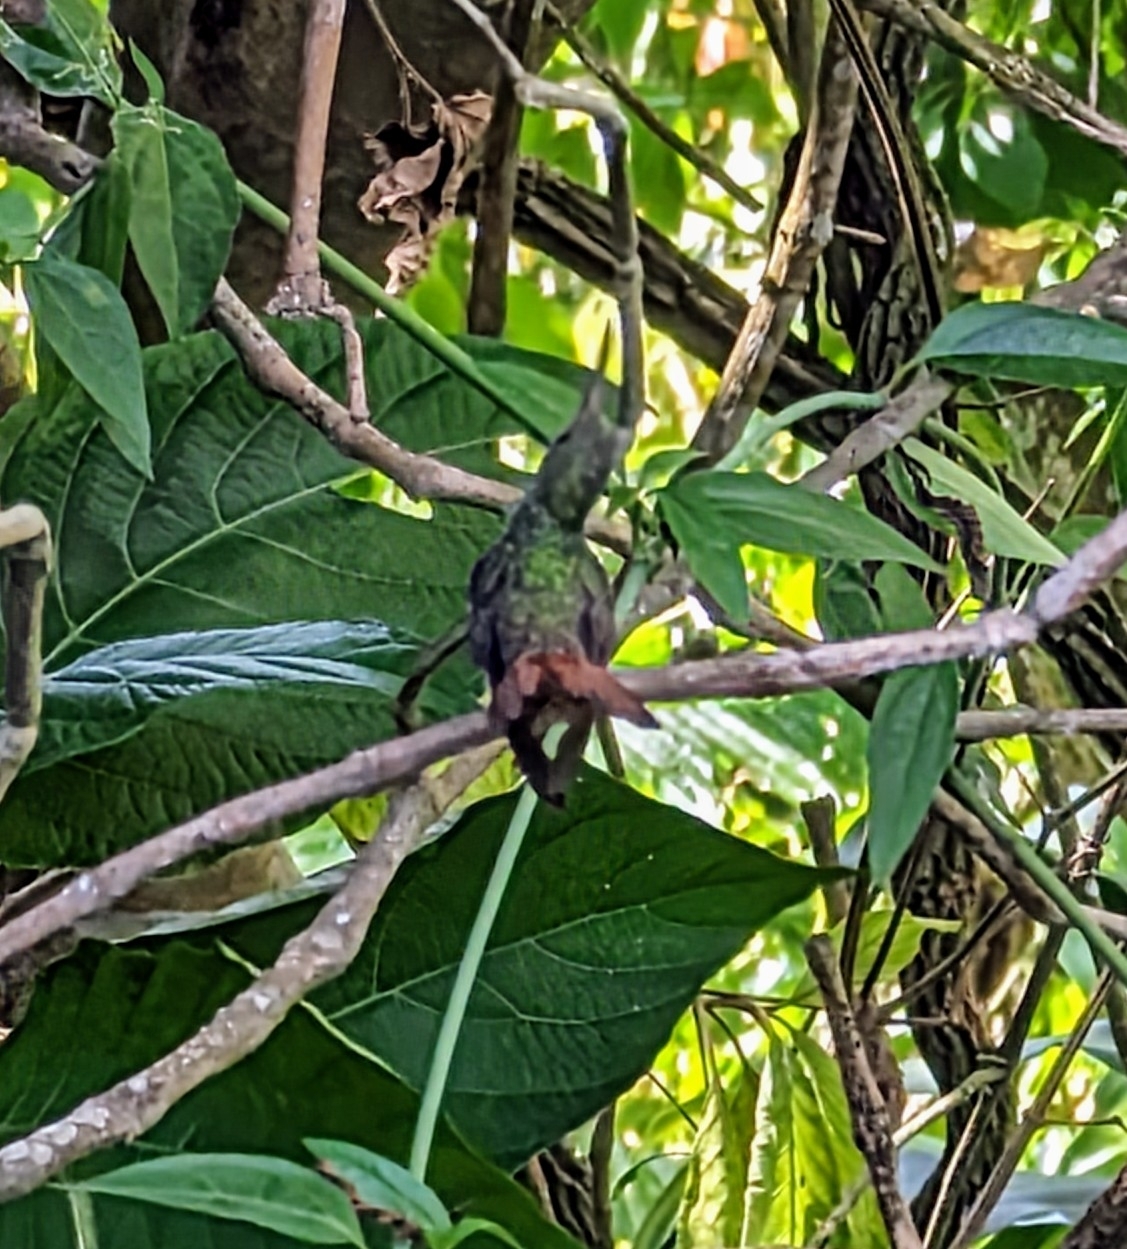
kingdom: Animalia
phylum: Chordata
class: Aves
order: Apodiformes
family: Trochilidae
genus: Amazilia
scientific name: Amazilia tzacatl
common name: Rufous-tailed hummingbird
